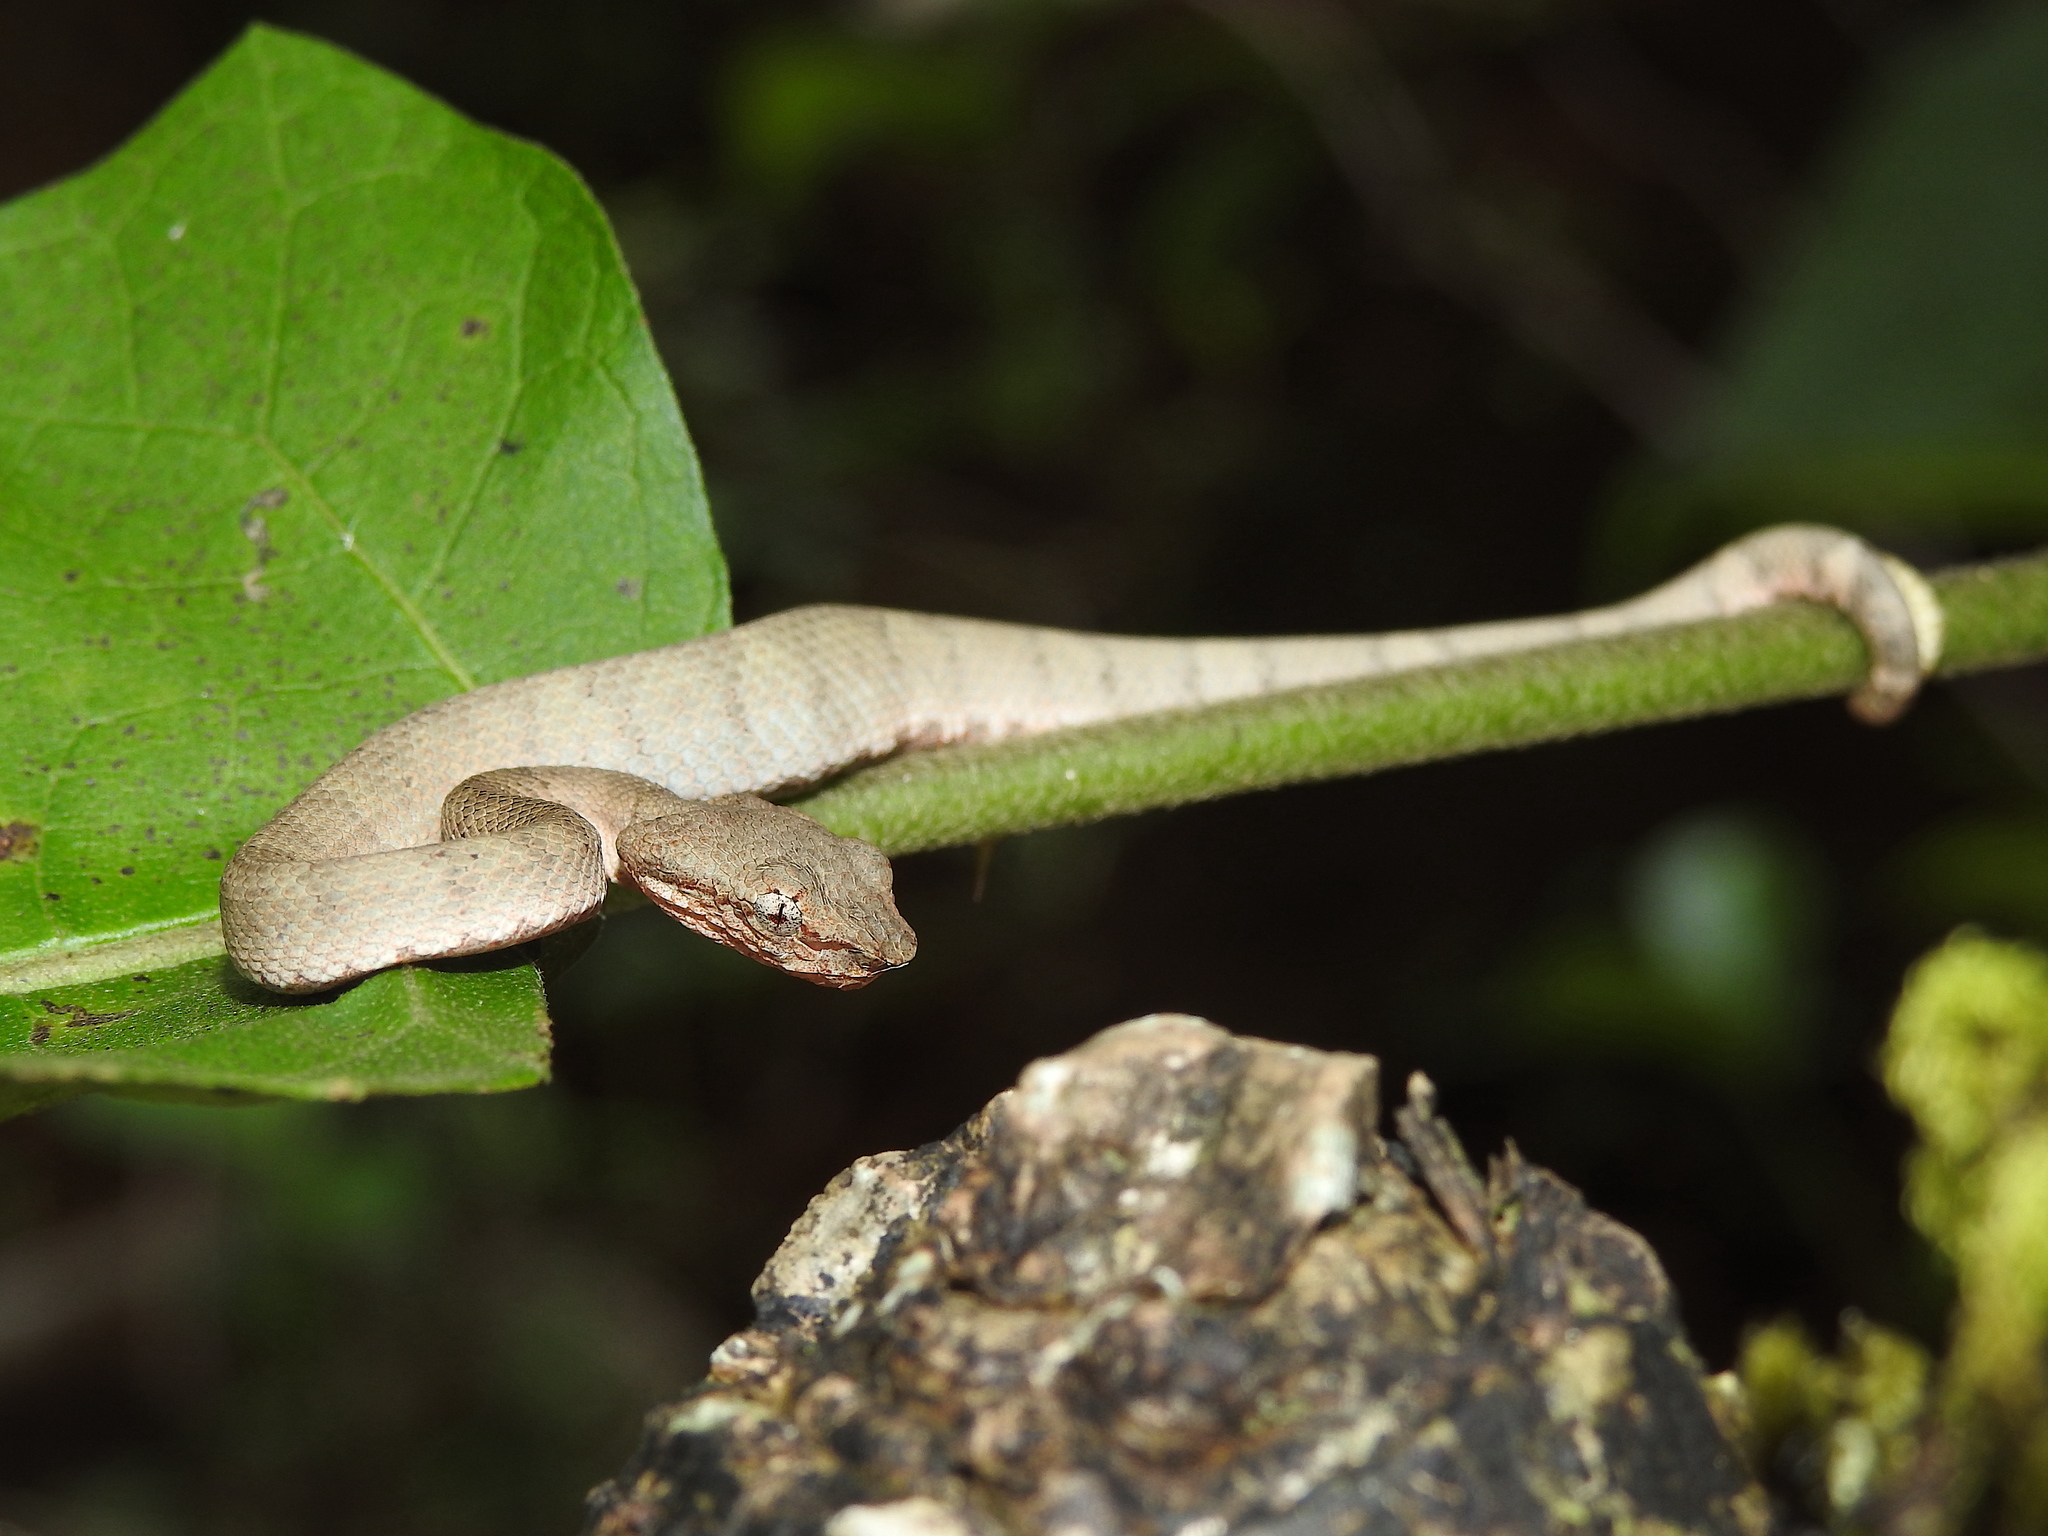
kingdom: Animalia
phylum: Chordata
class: Squamata
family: Viperidae
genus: Craspedocephalus
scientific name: Craspedocephalus malabaricus
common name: Malabarian pit viper
